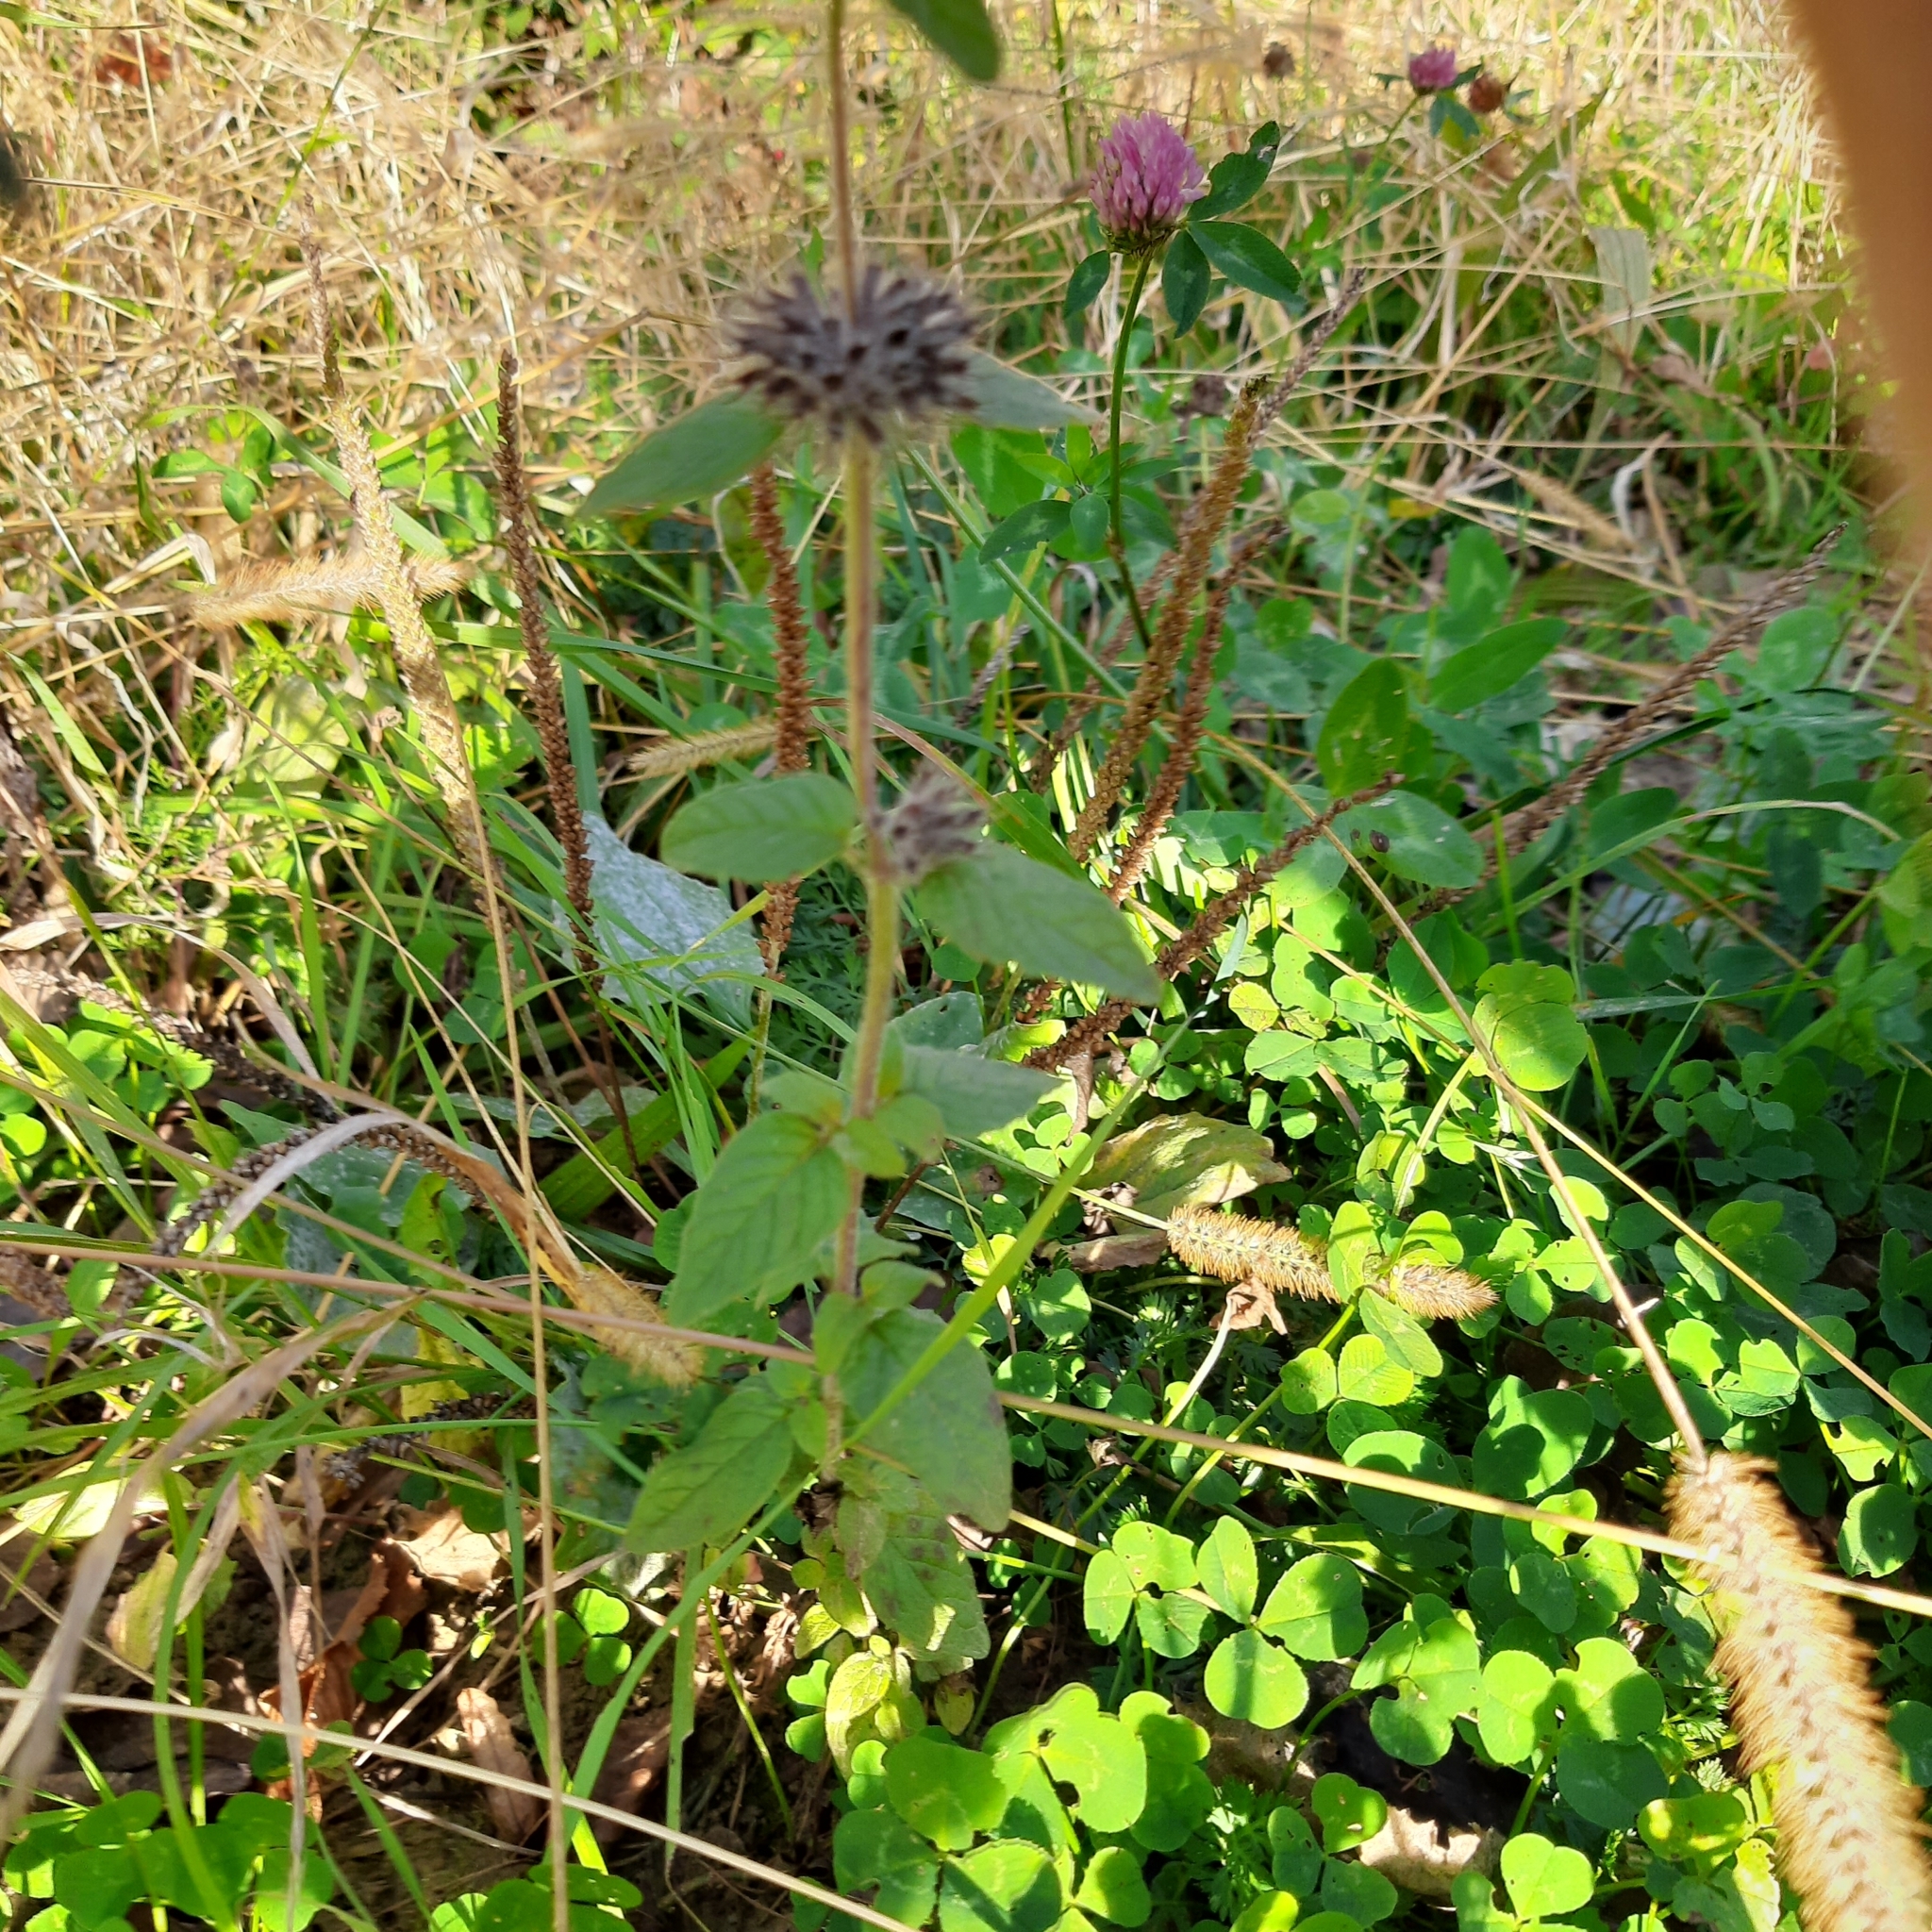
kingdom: Plantae
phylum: Tracheophyta
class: Magnoliopsida
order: Lamiales
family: Lamiaceae
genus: Clinopodium
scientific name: Clinopodium vulgare
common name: Wild basil
